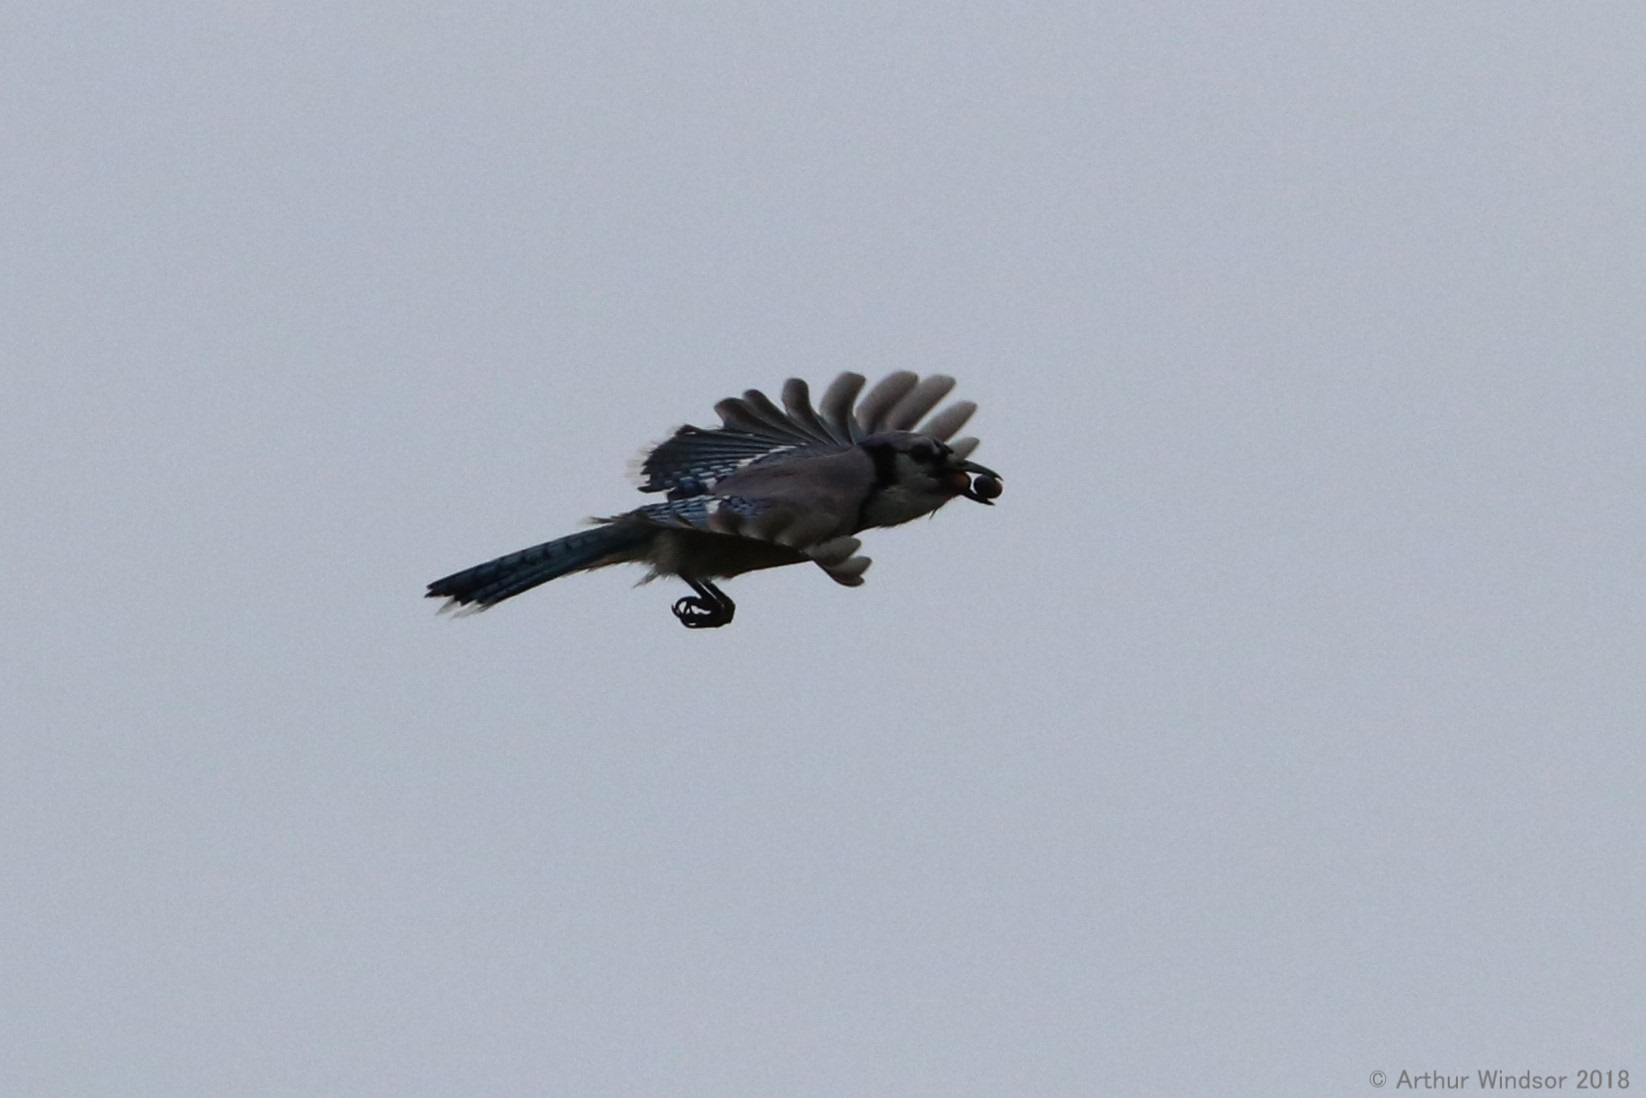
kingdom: Animalia
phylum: Chordata
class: Aves
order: Passeriformes
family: Corvidae
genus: Cyanocitta
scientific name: Cyanocitta cristata
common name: Blue jay
